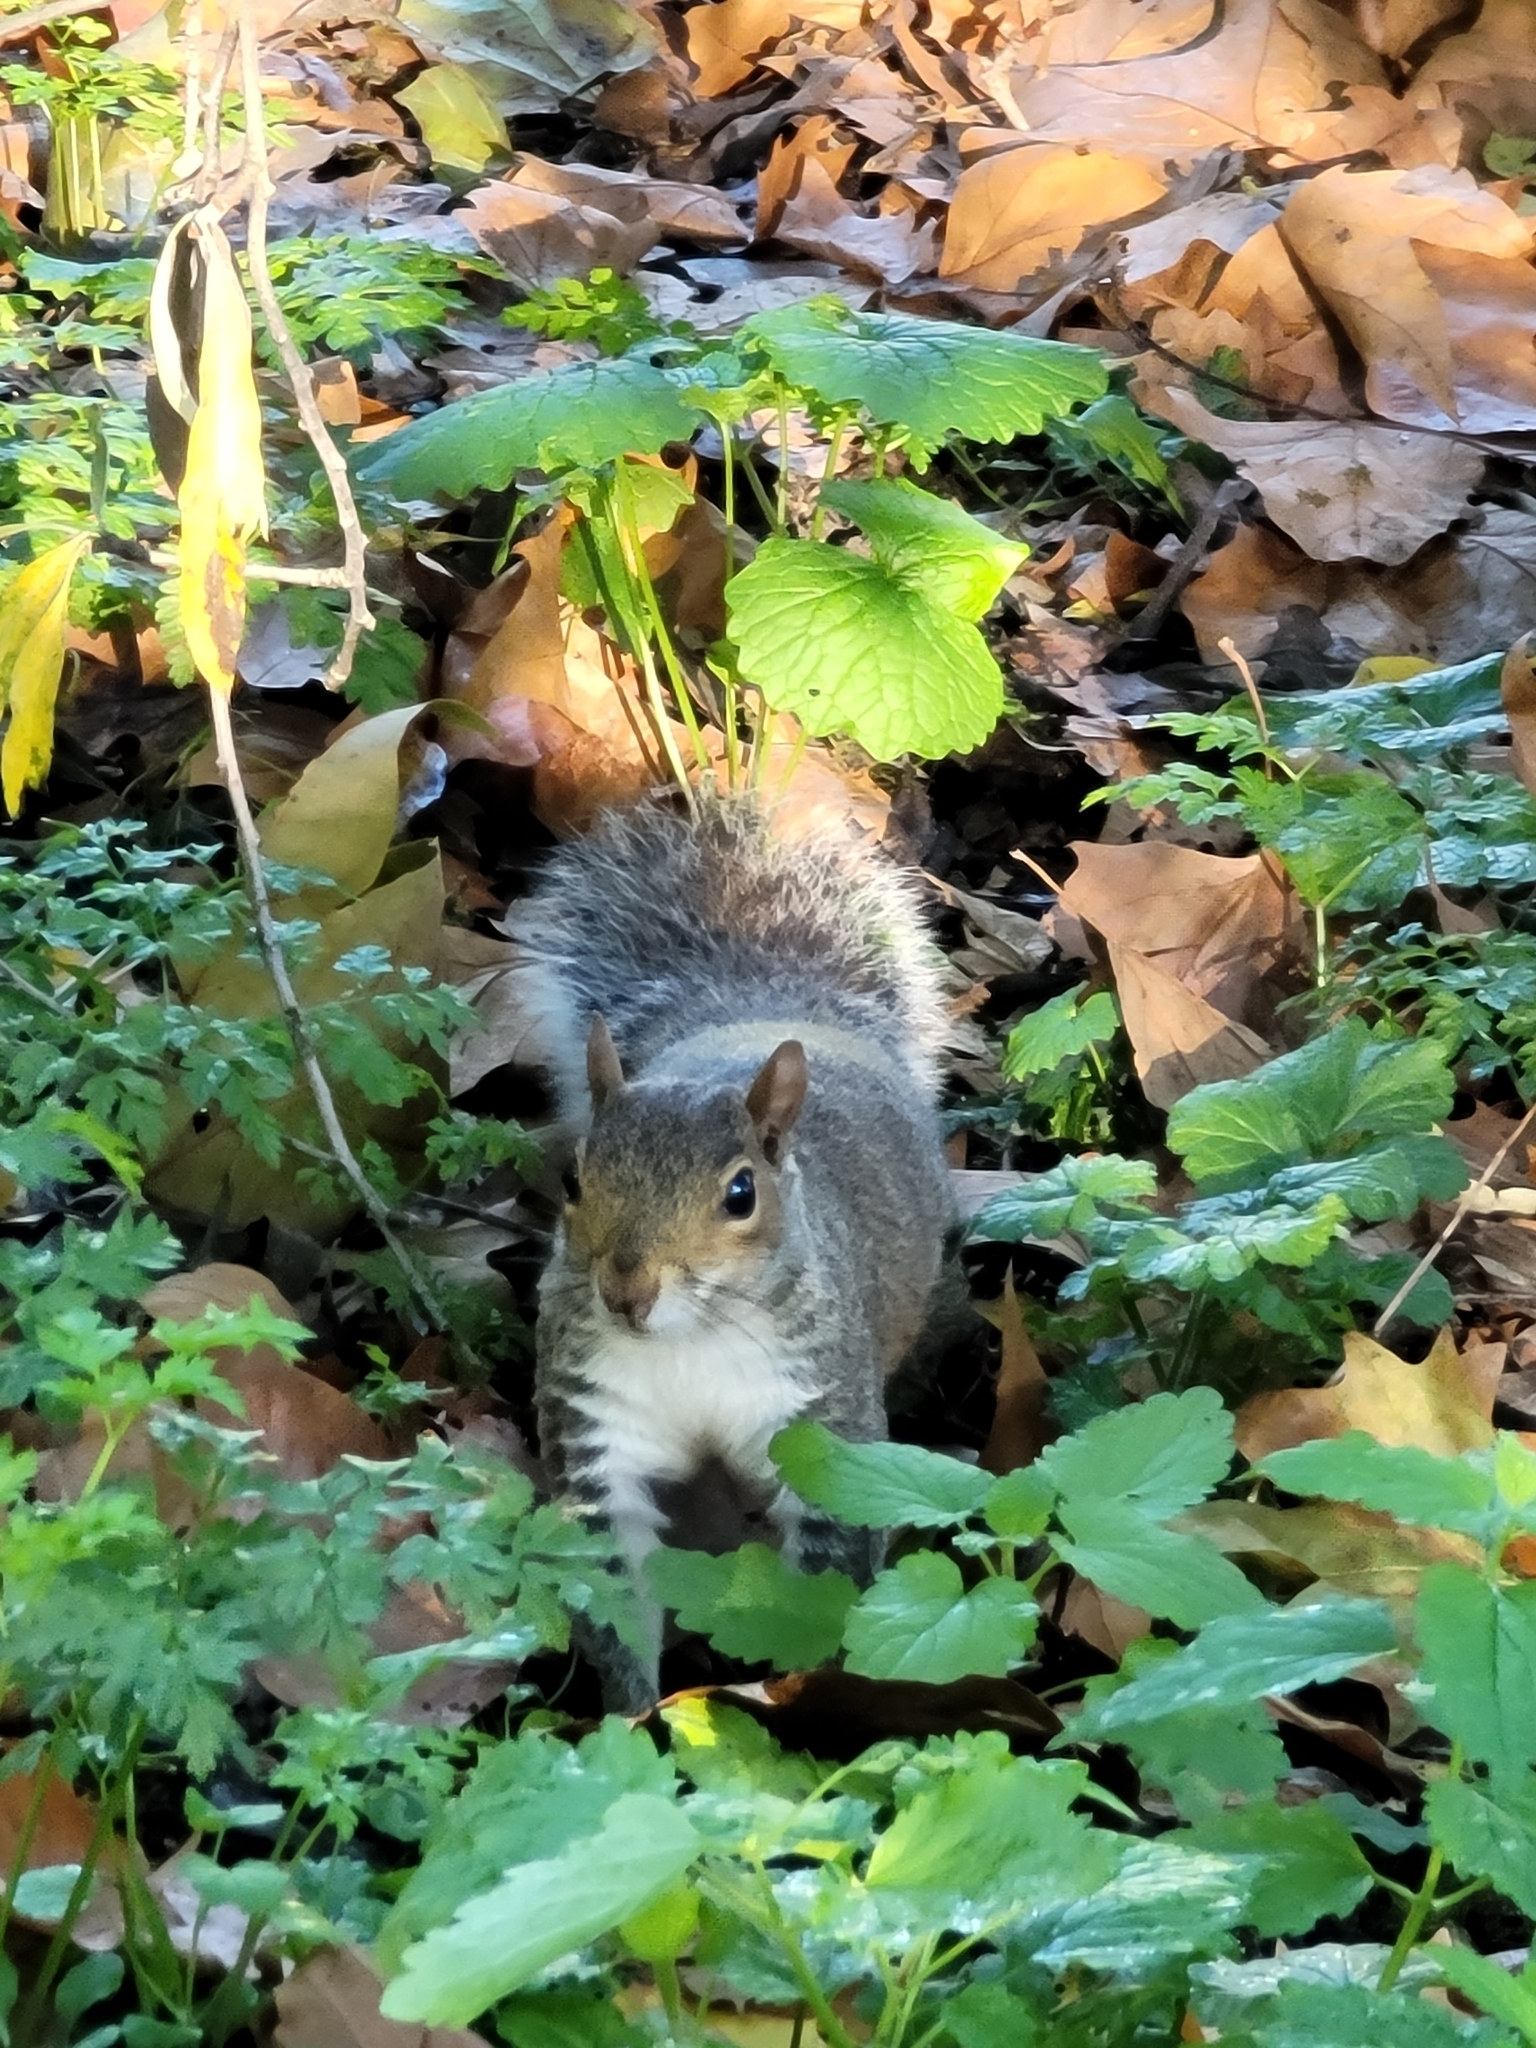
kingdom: Animalia
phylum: Chordata
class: Mammalia
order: Rodentia
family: Sciuridae
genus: Sciurus
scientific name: Sciurus carolinensis
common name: Eastern gray squirrel
